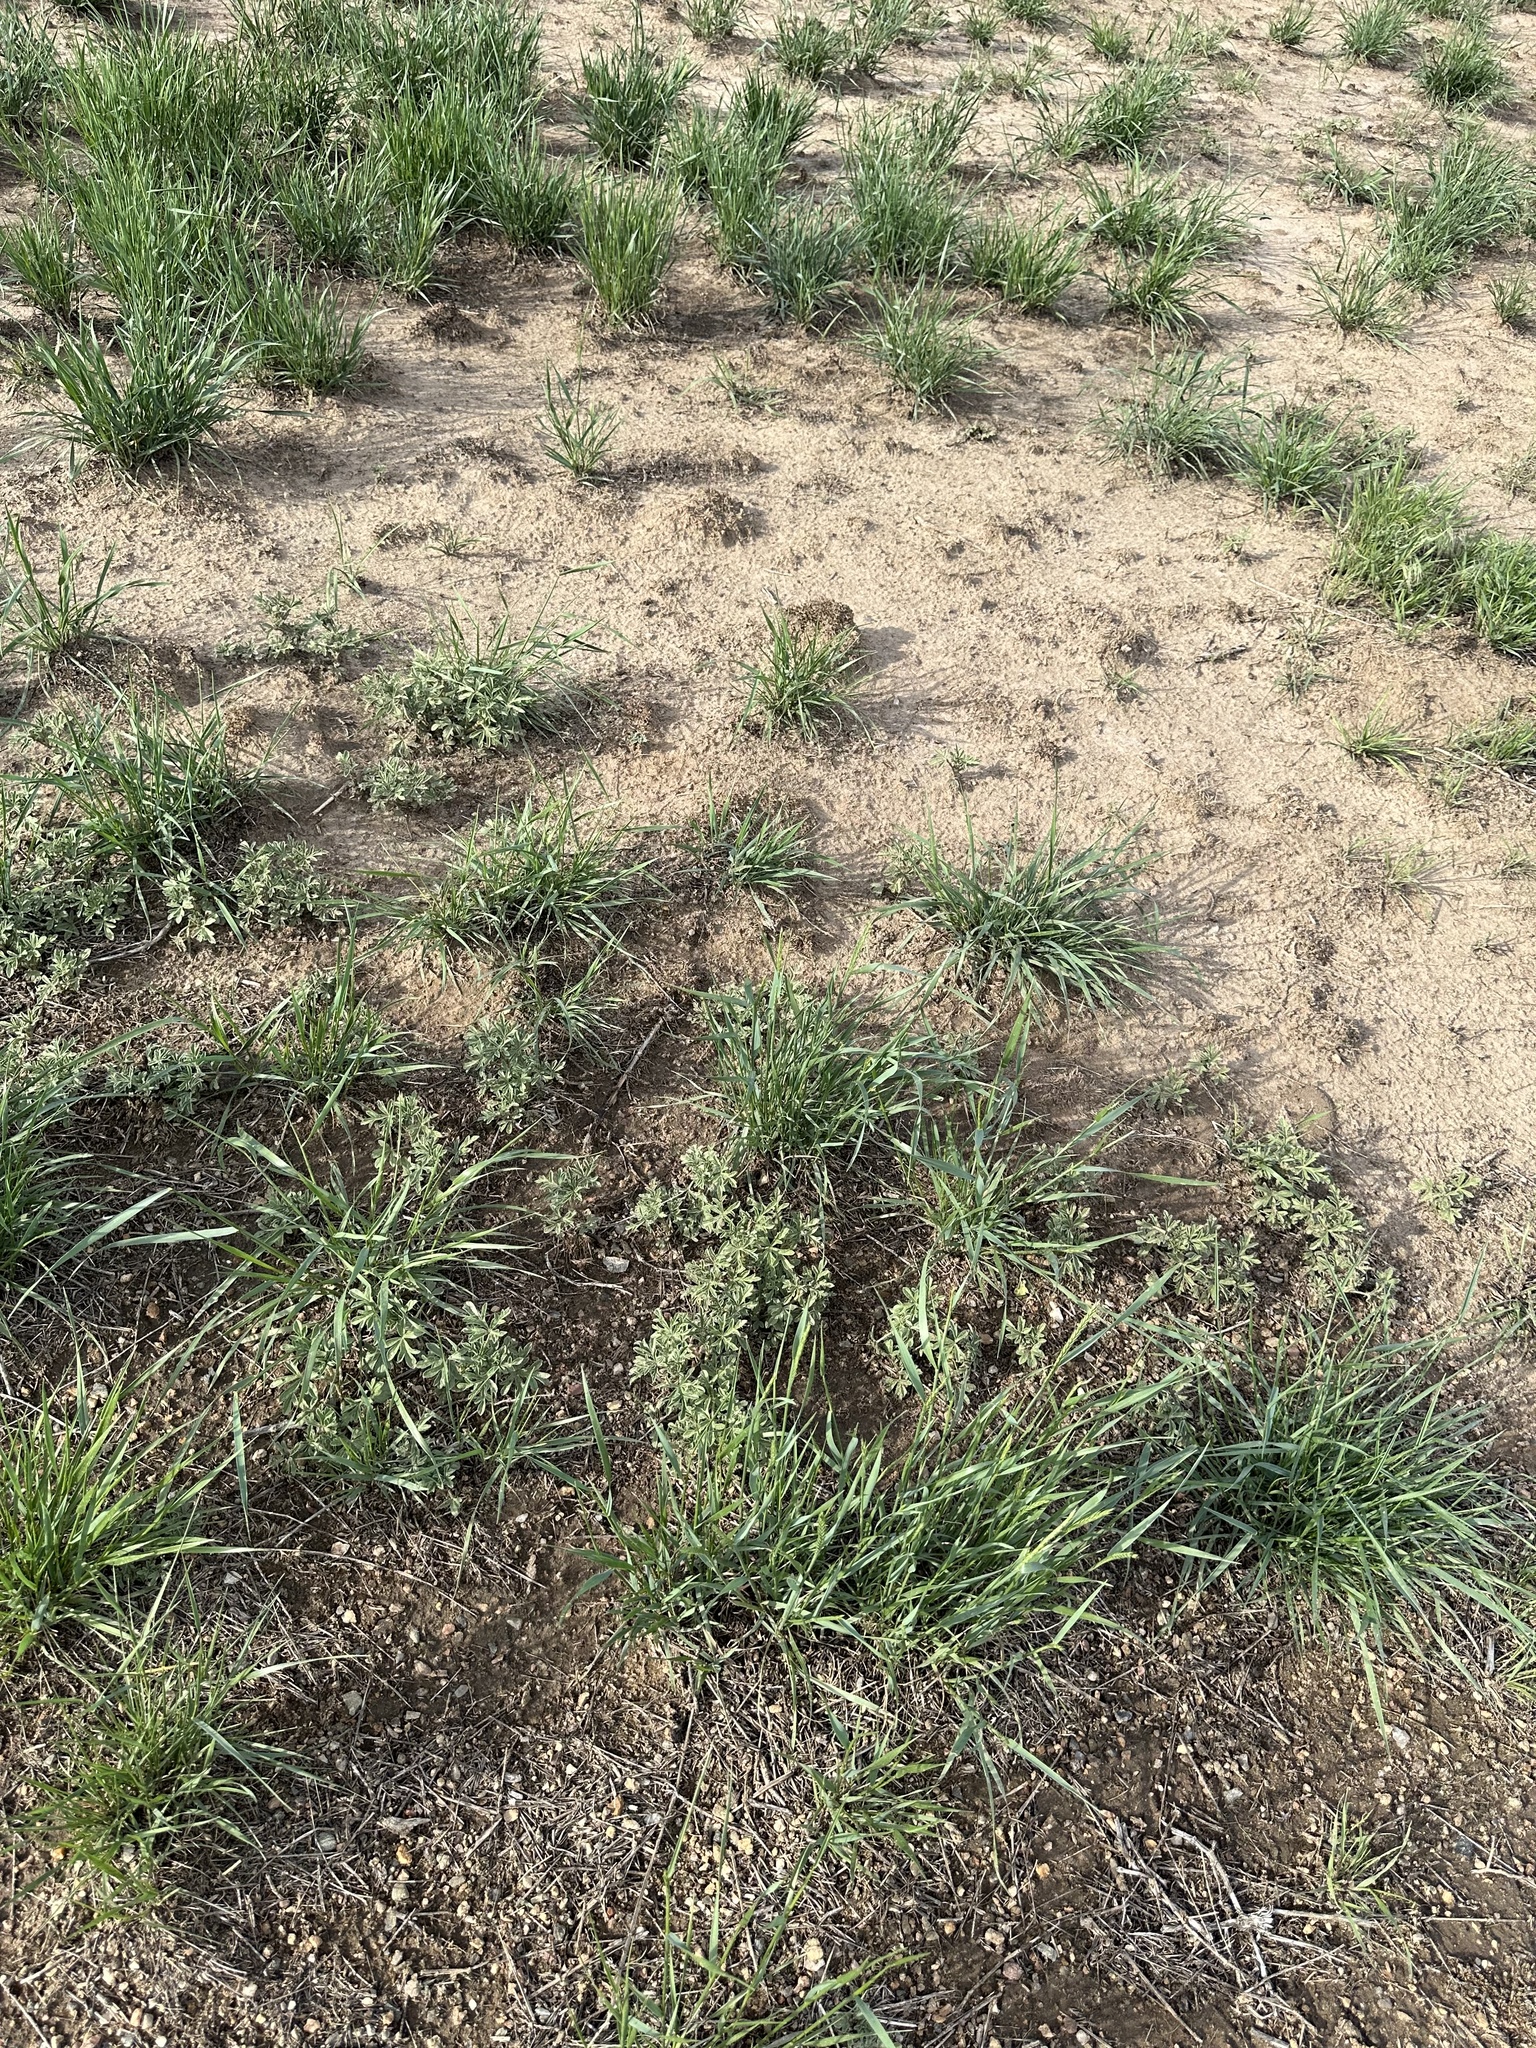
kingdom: Plantae
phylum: Tracheophyta
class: Magnoliopsida
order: Malvales
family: Malvaceae
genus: Sphaeralcea
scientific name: Sphaeralcea coccinea
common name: Moss-rose
